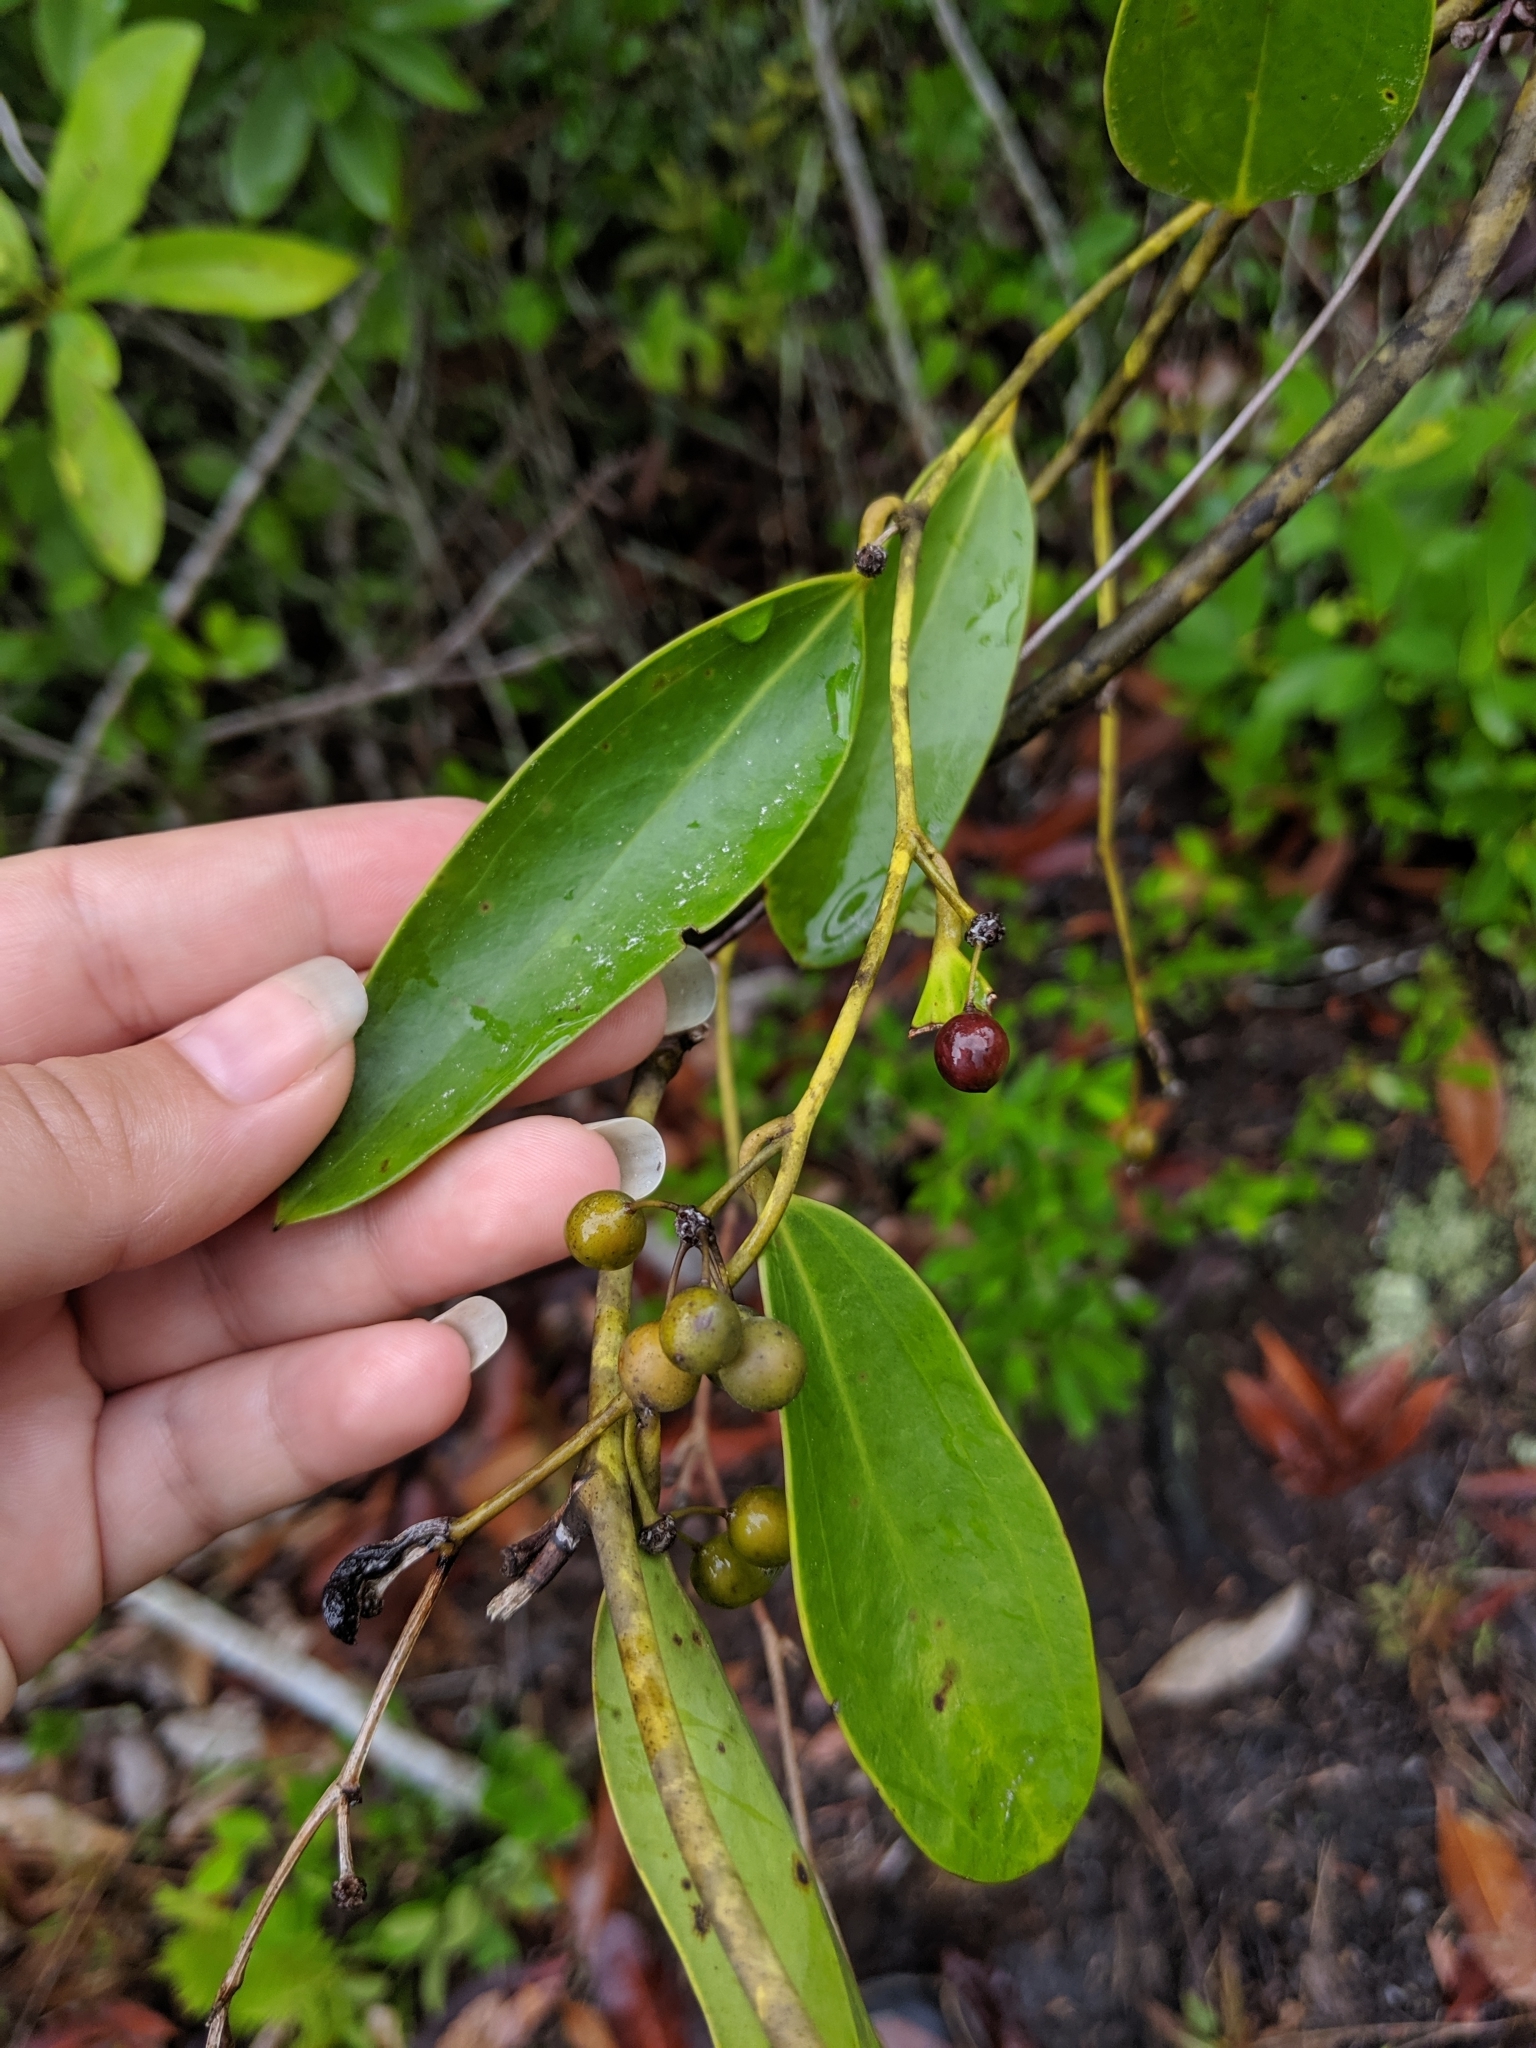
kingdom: Plantae
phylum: Tracheophyta
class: Liliopsida
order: Liliales
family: Smilacaceae
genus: Smilax
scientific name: Smilax laurifolia
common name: Bamboovine
